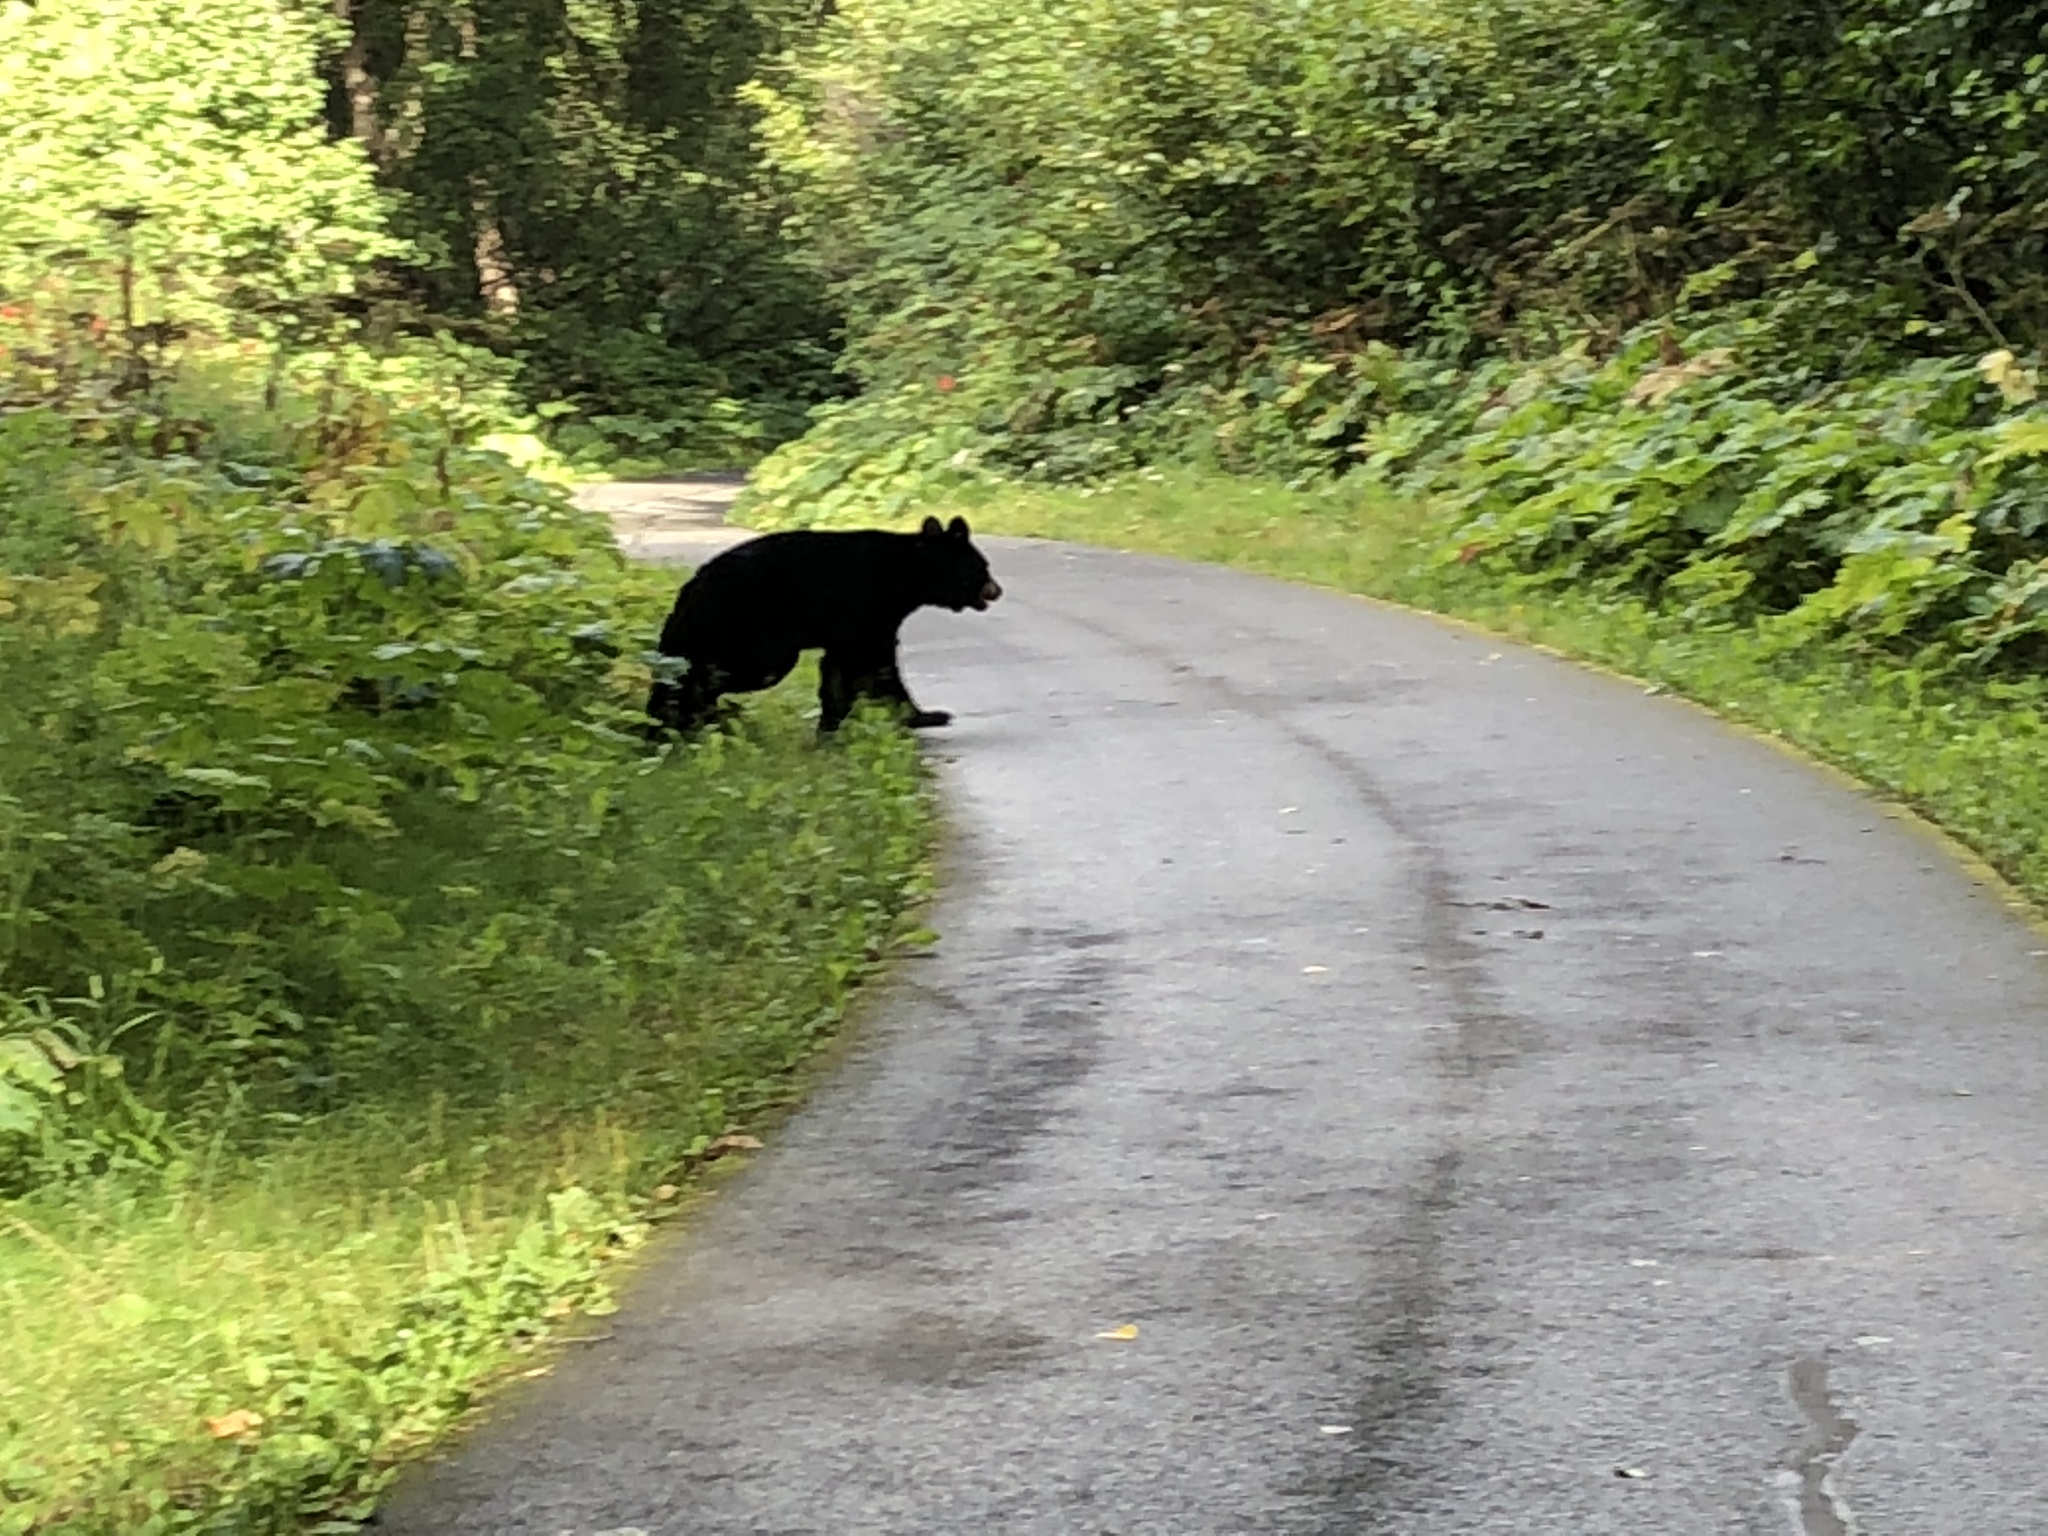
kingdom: Animalia
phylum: Chordata
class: Mammalia
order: Carnivora
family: Ursidae
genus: Ursus
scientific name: Ursus americanus
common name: American black bear
